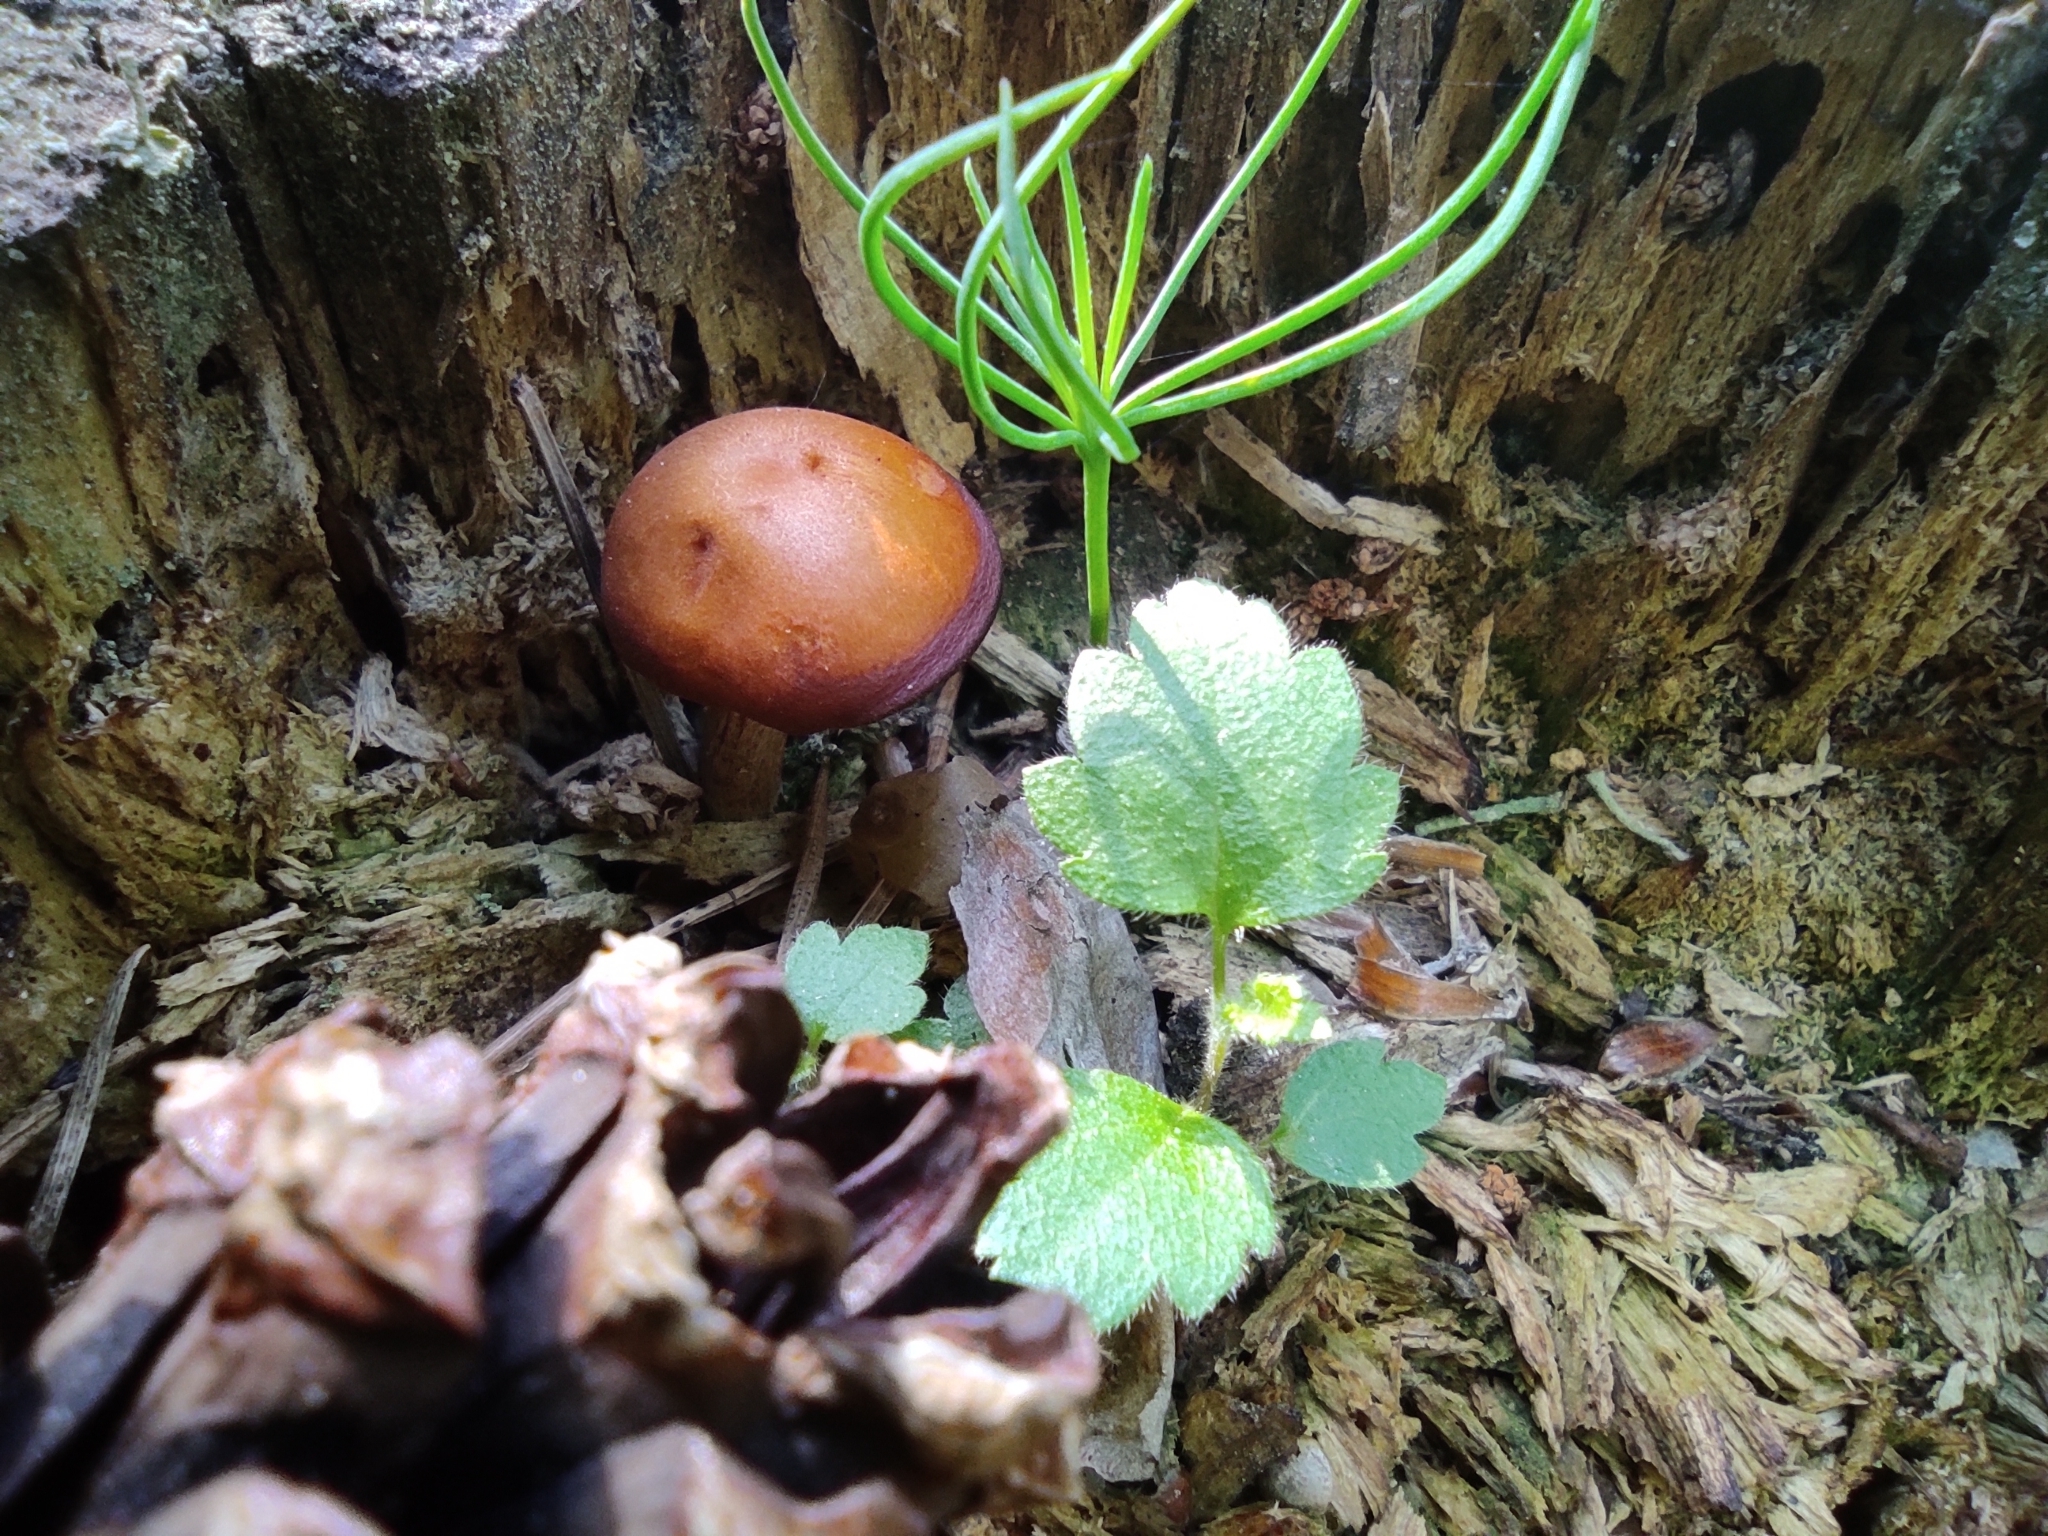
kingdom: Plantae
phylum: Tracheophyta
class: Pinopsida
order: Pinales
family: Pinaceae
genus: Pinus
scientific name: Pinus sylvestris
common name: Scots pine
